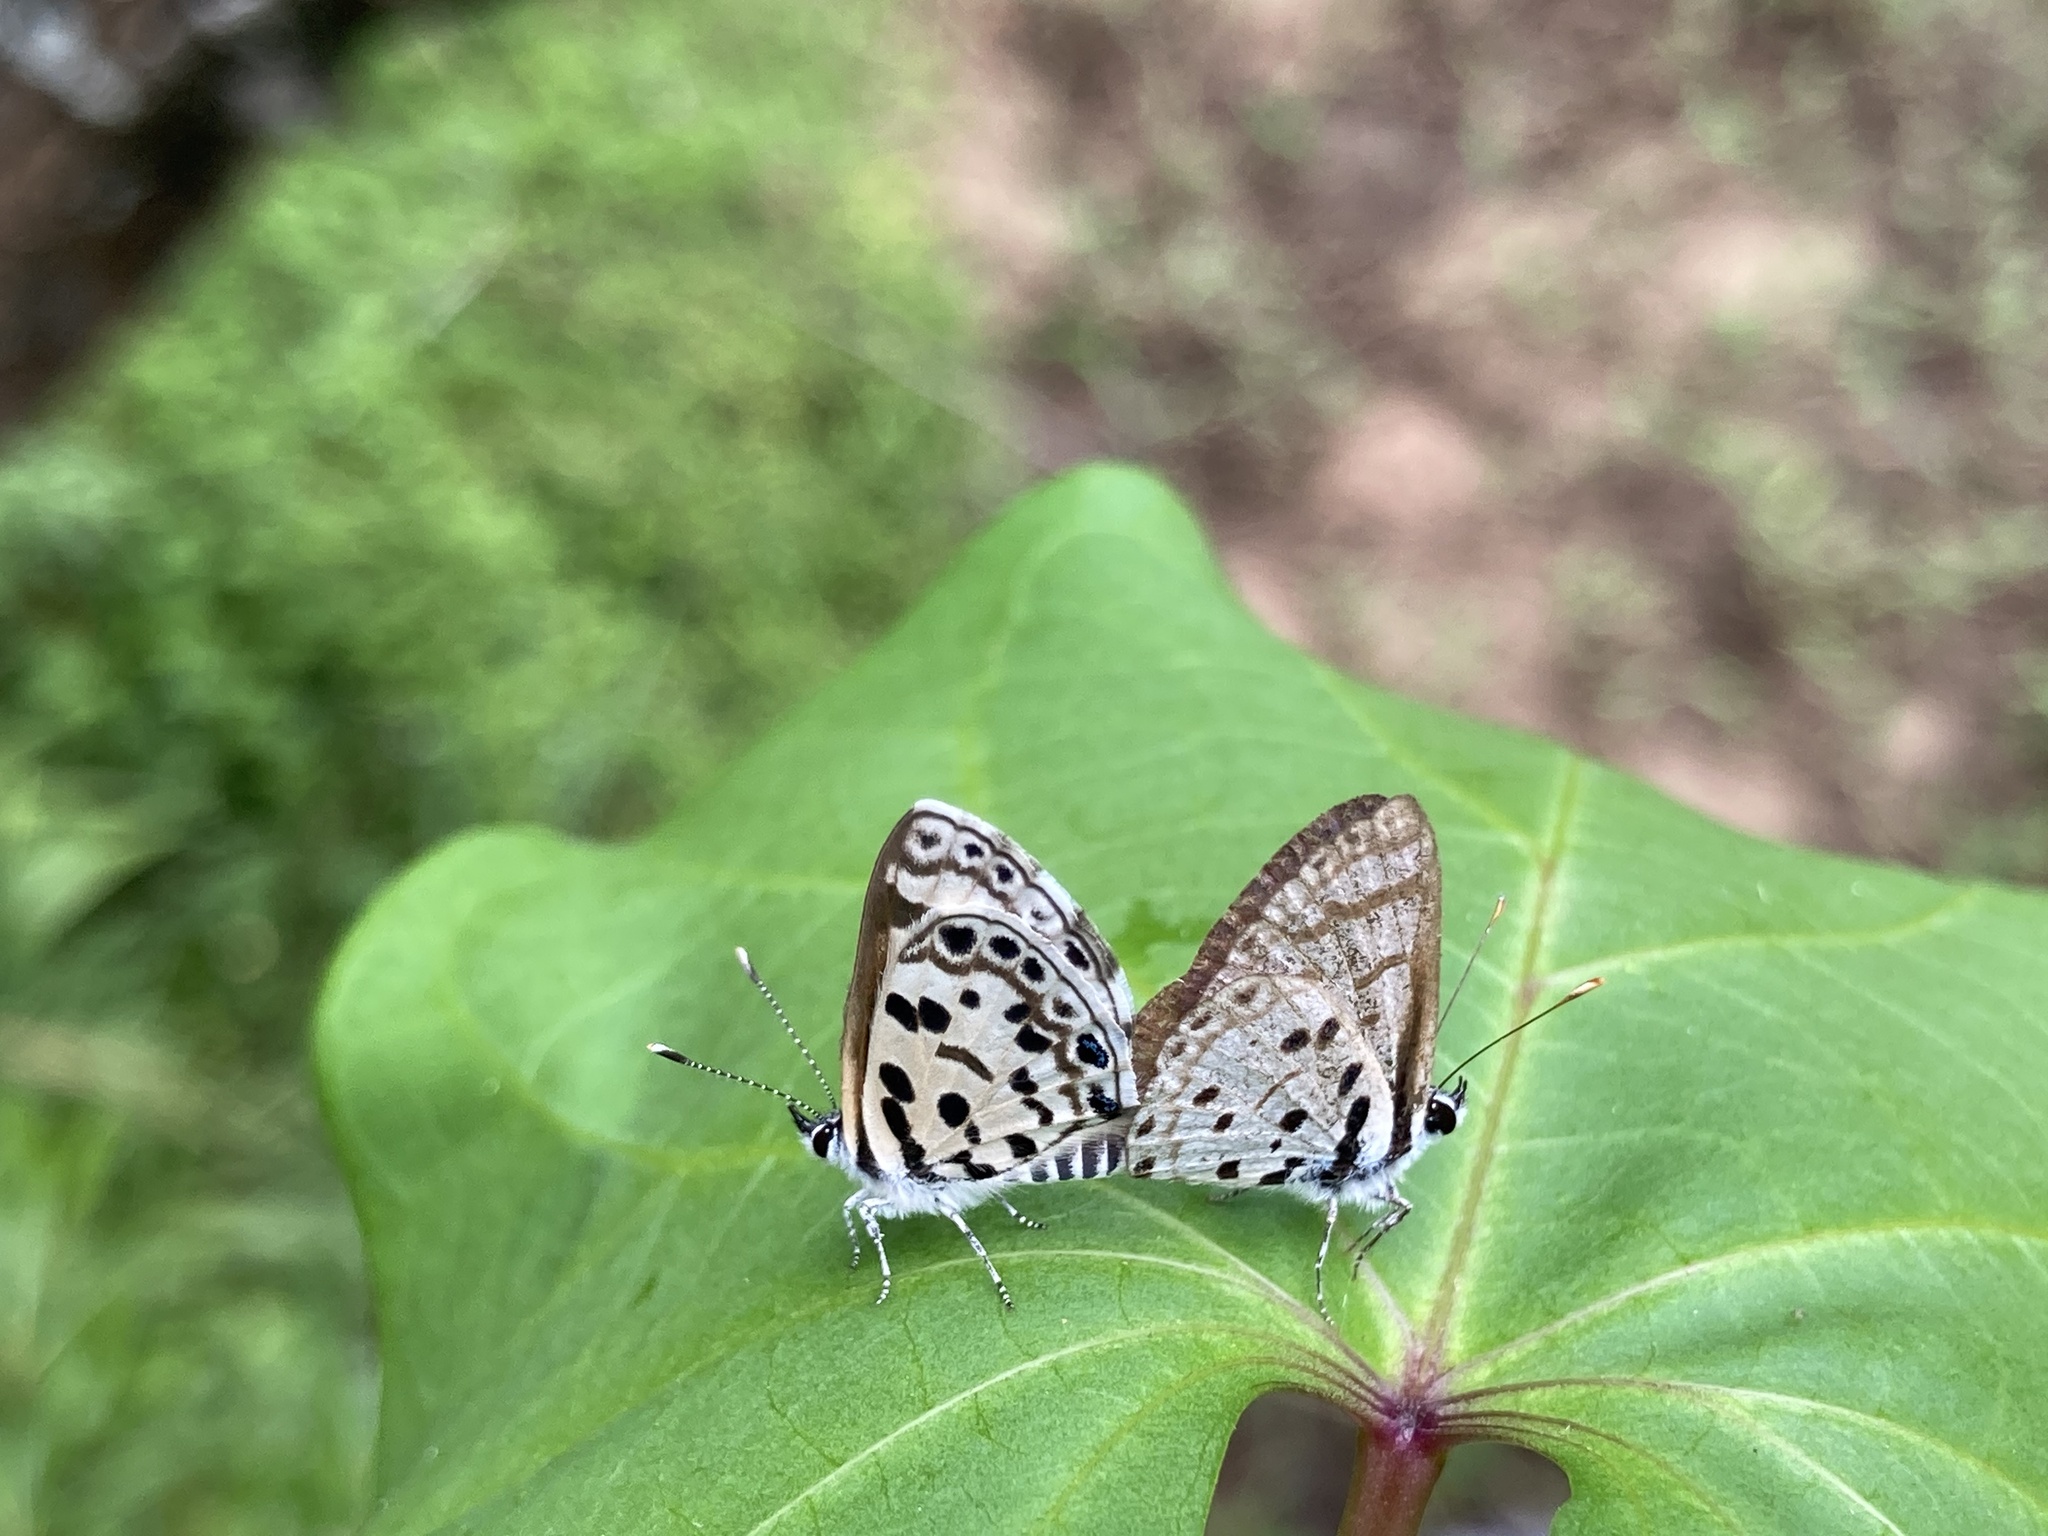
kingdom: Animalia
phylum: Arthropoda
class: Insecta
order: Lepidoptera
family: Lycaenidae
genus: Azanus
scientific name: Azanus natalensis
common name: Natal babul blue
